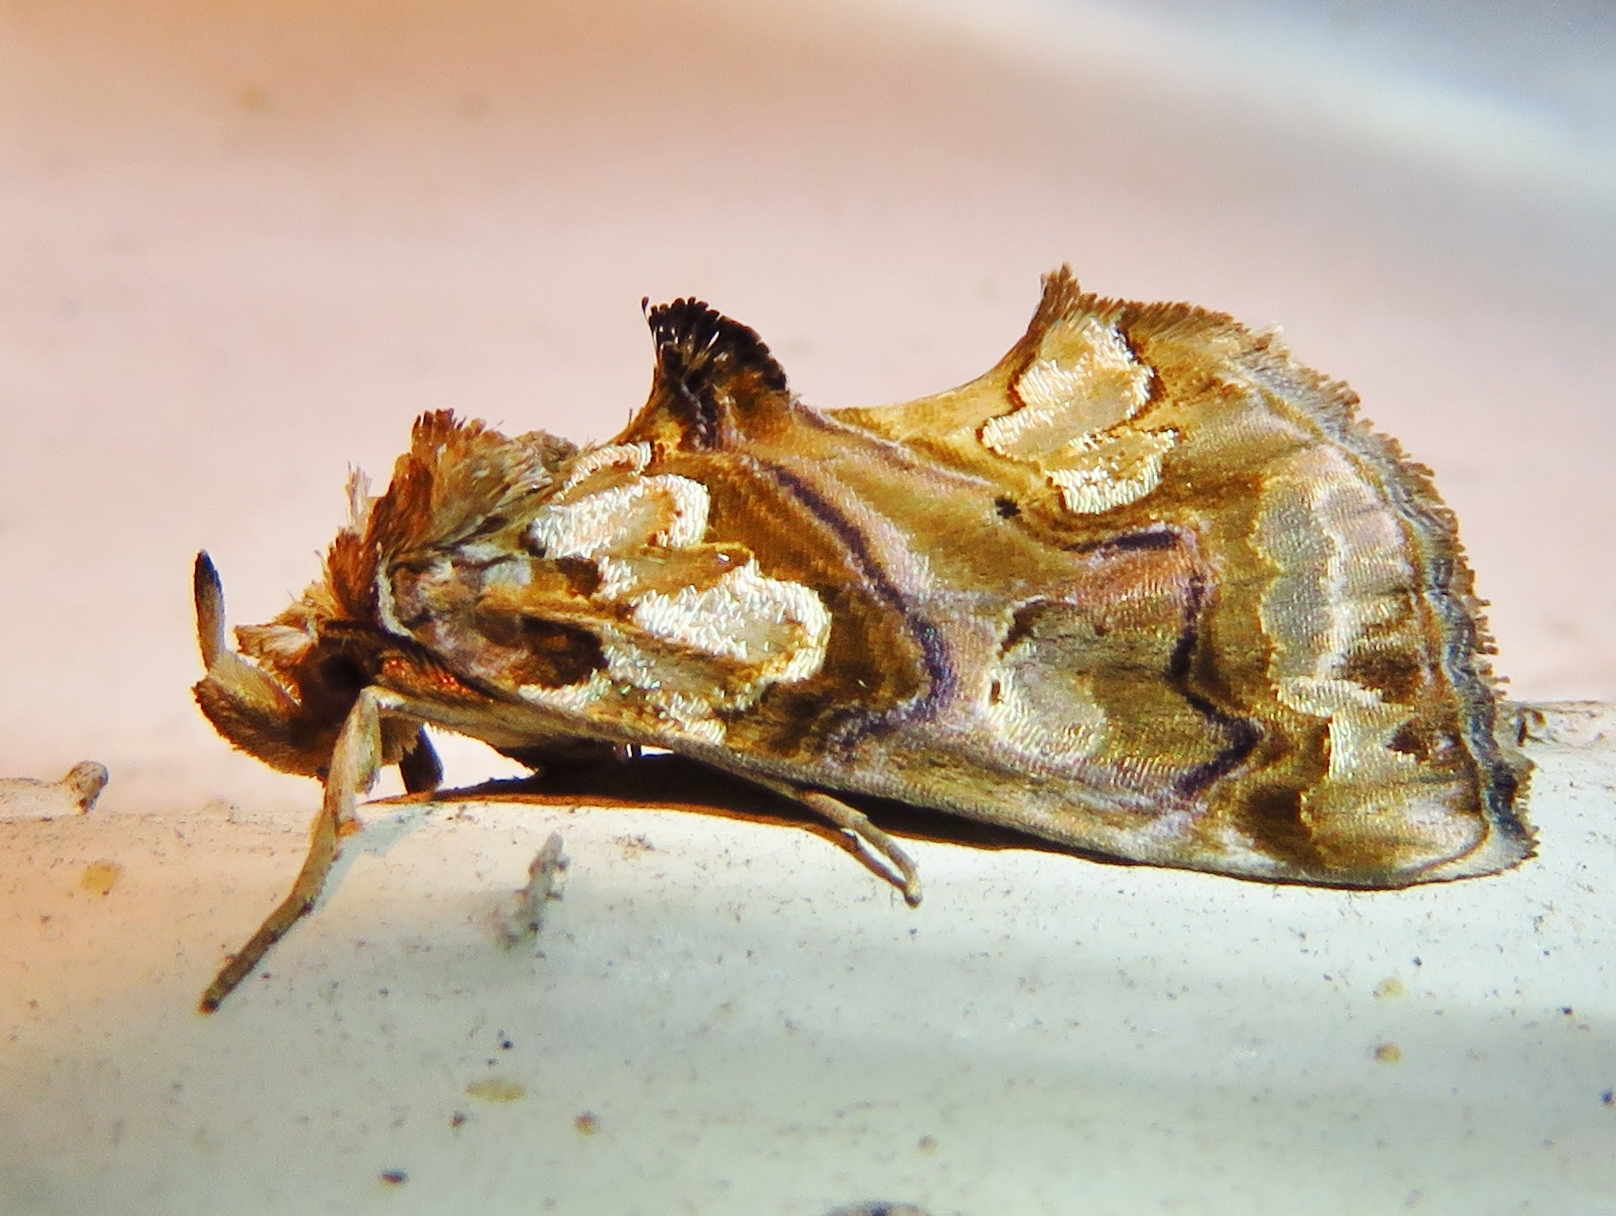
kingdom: Animalia
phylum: Arthropoda
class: Insecta
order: Lepidoptera
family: Erebidae
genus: Plusiodonta
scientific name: Plusiodonta compressipalpis
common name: Moonseed moth
